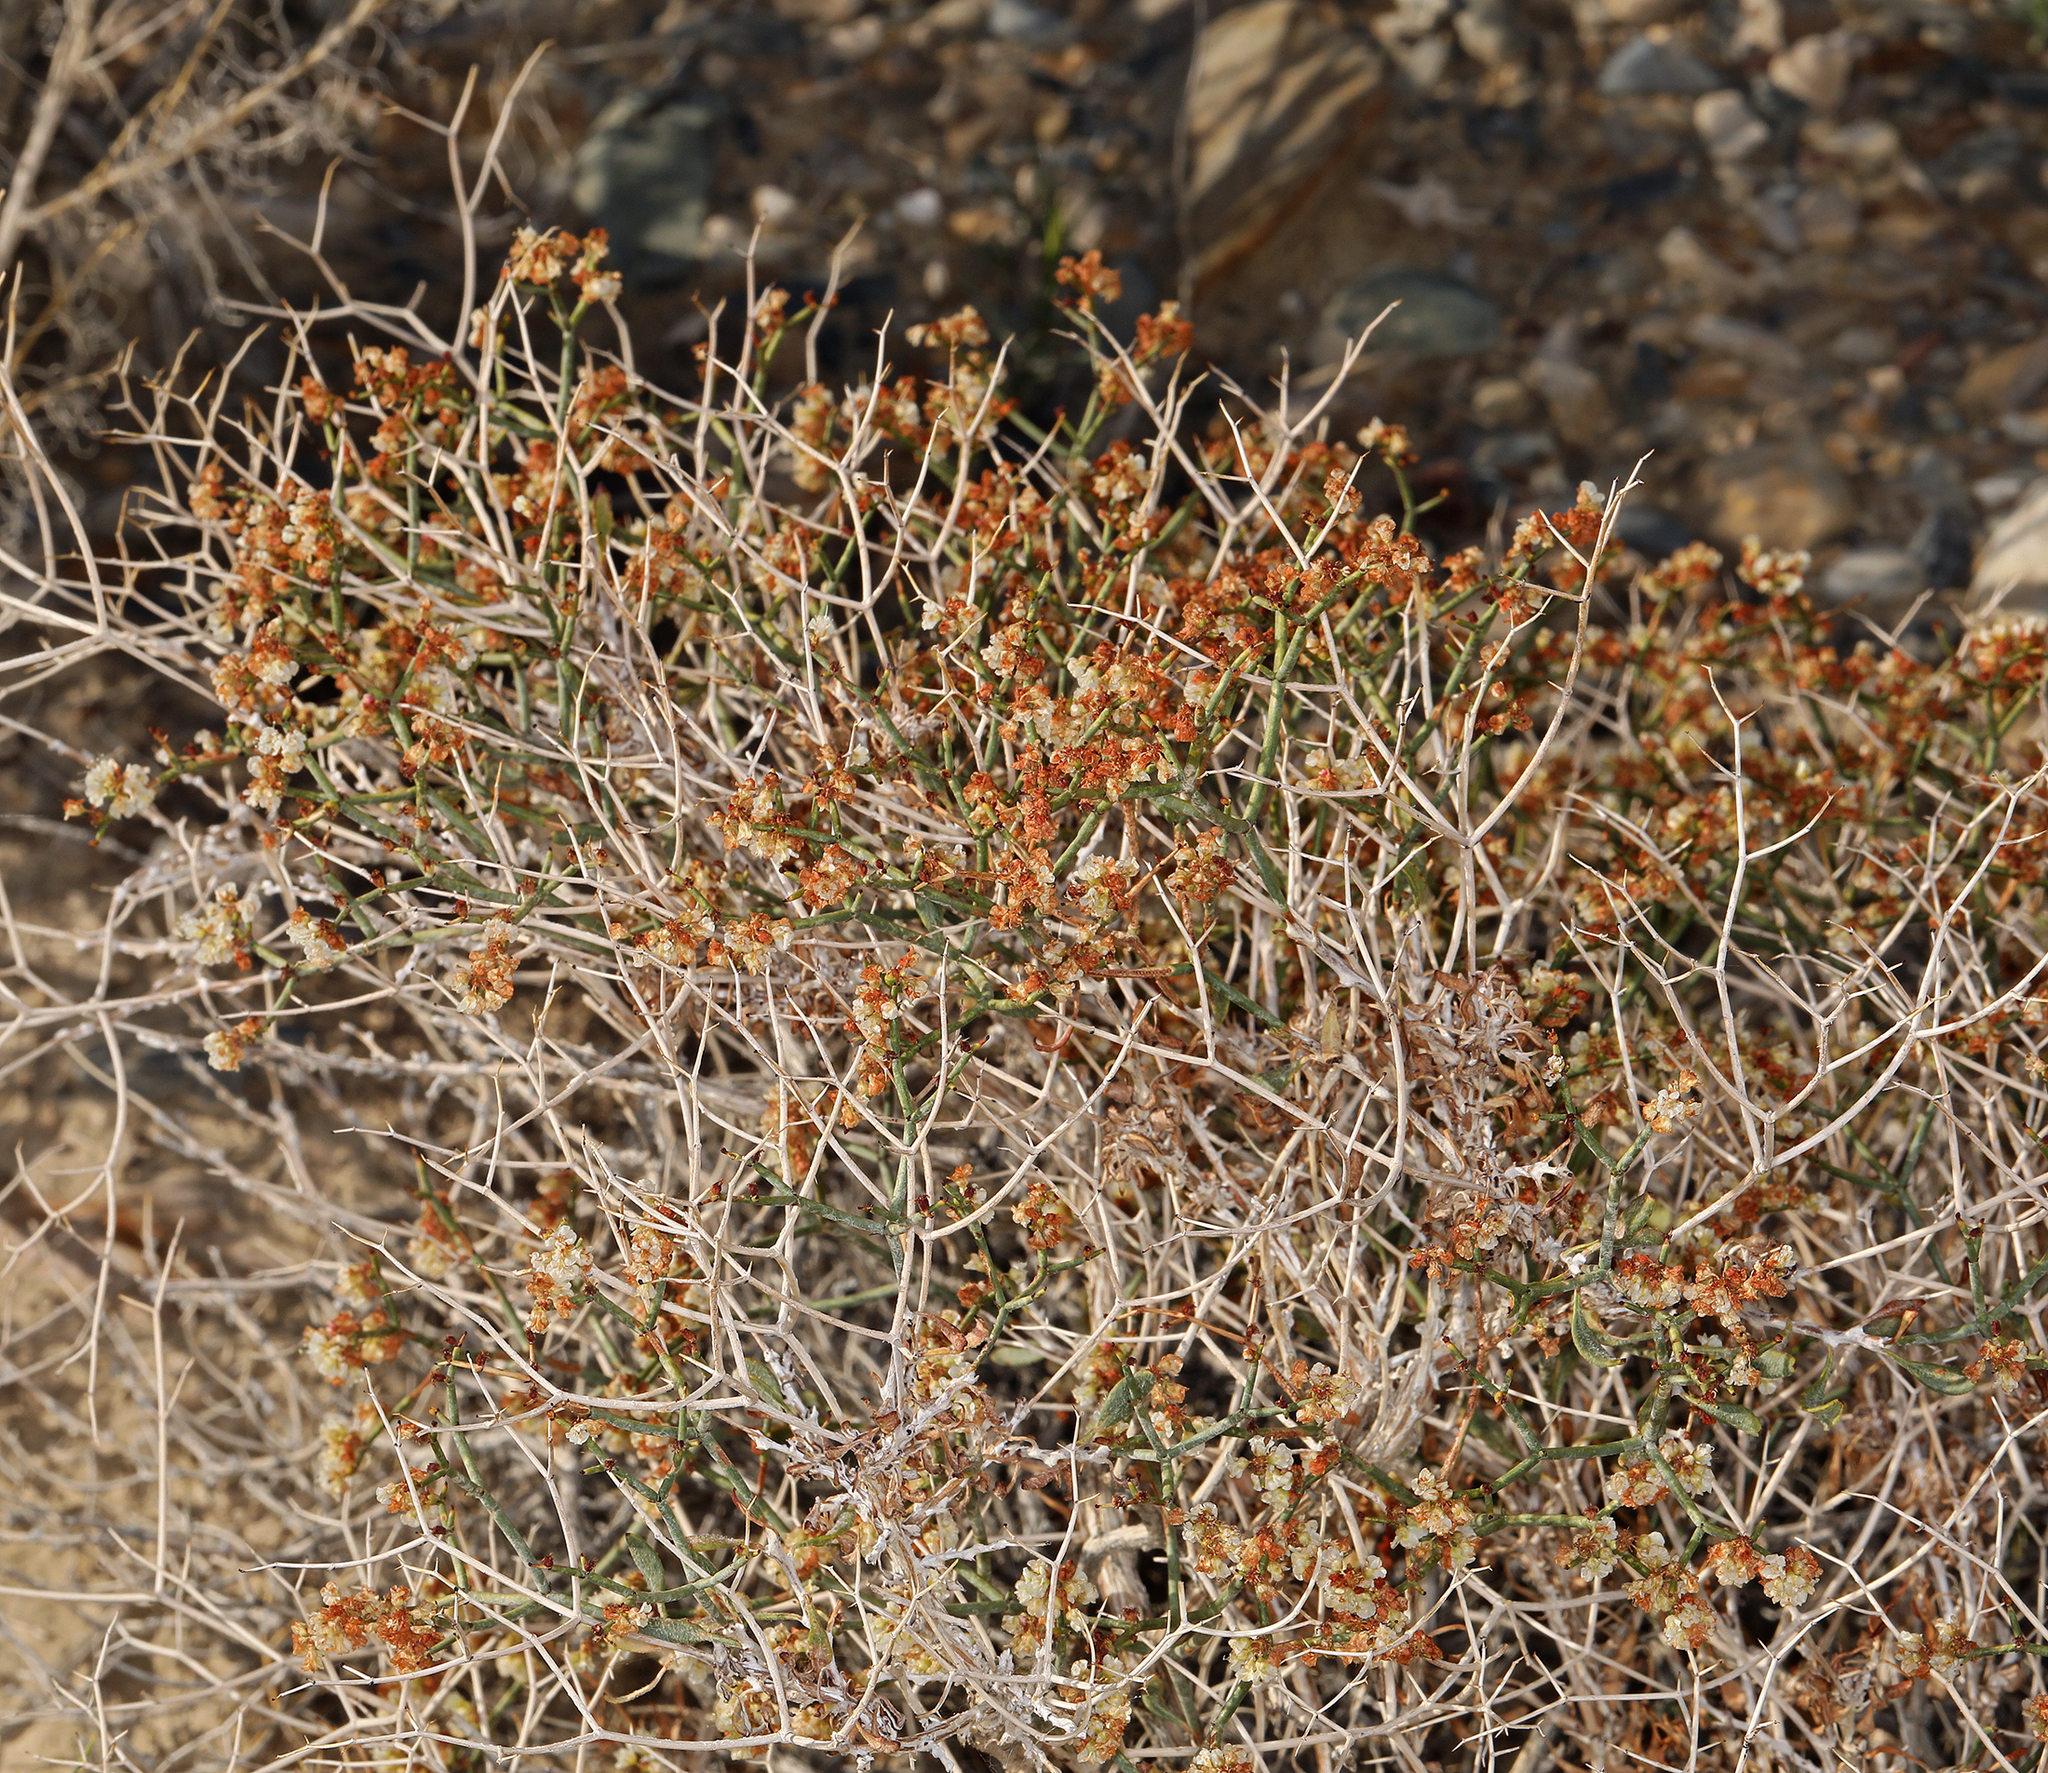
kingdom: Plantae
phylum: Tracheophyta
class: Magnoliopsida
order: Caryophyllales
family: Polygonaceae
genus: Eriogonum
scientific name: Eriogonum heermannii
